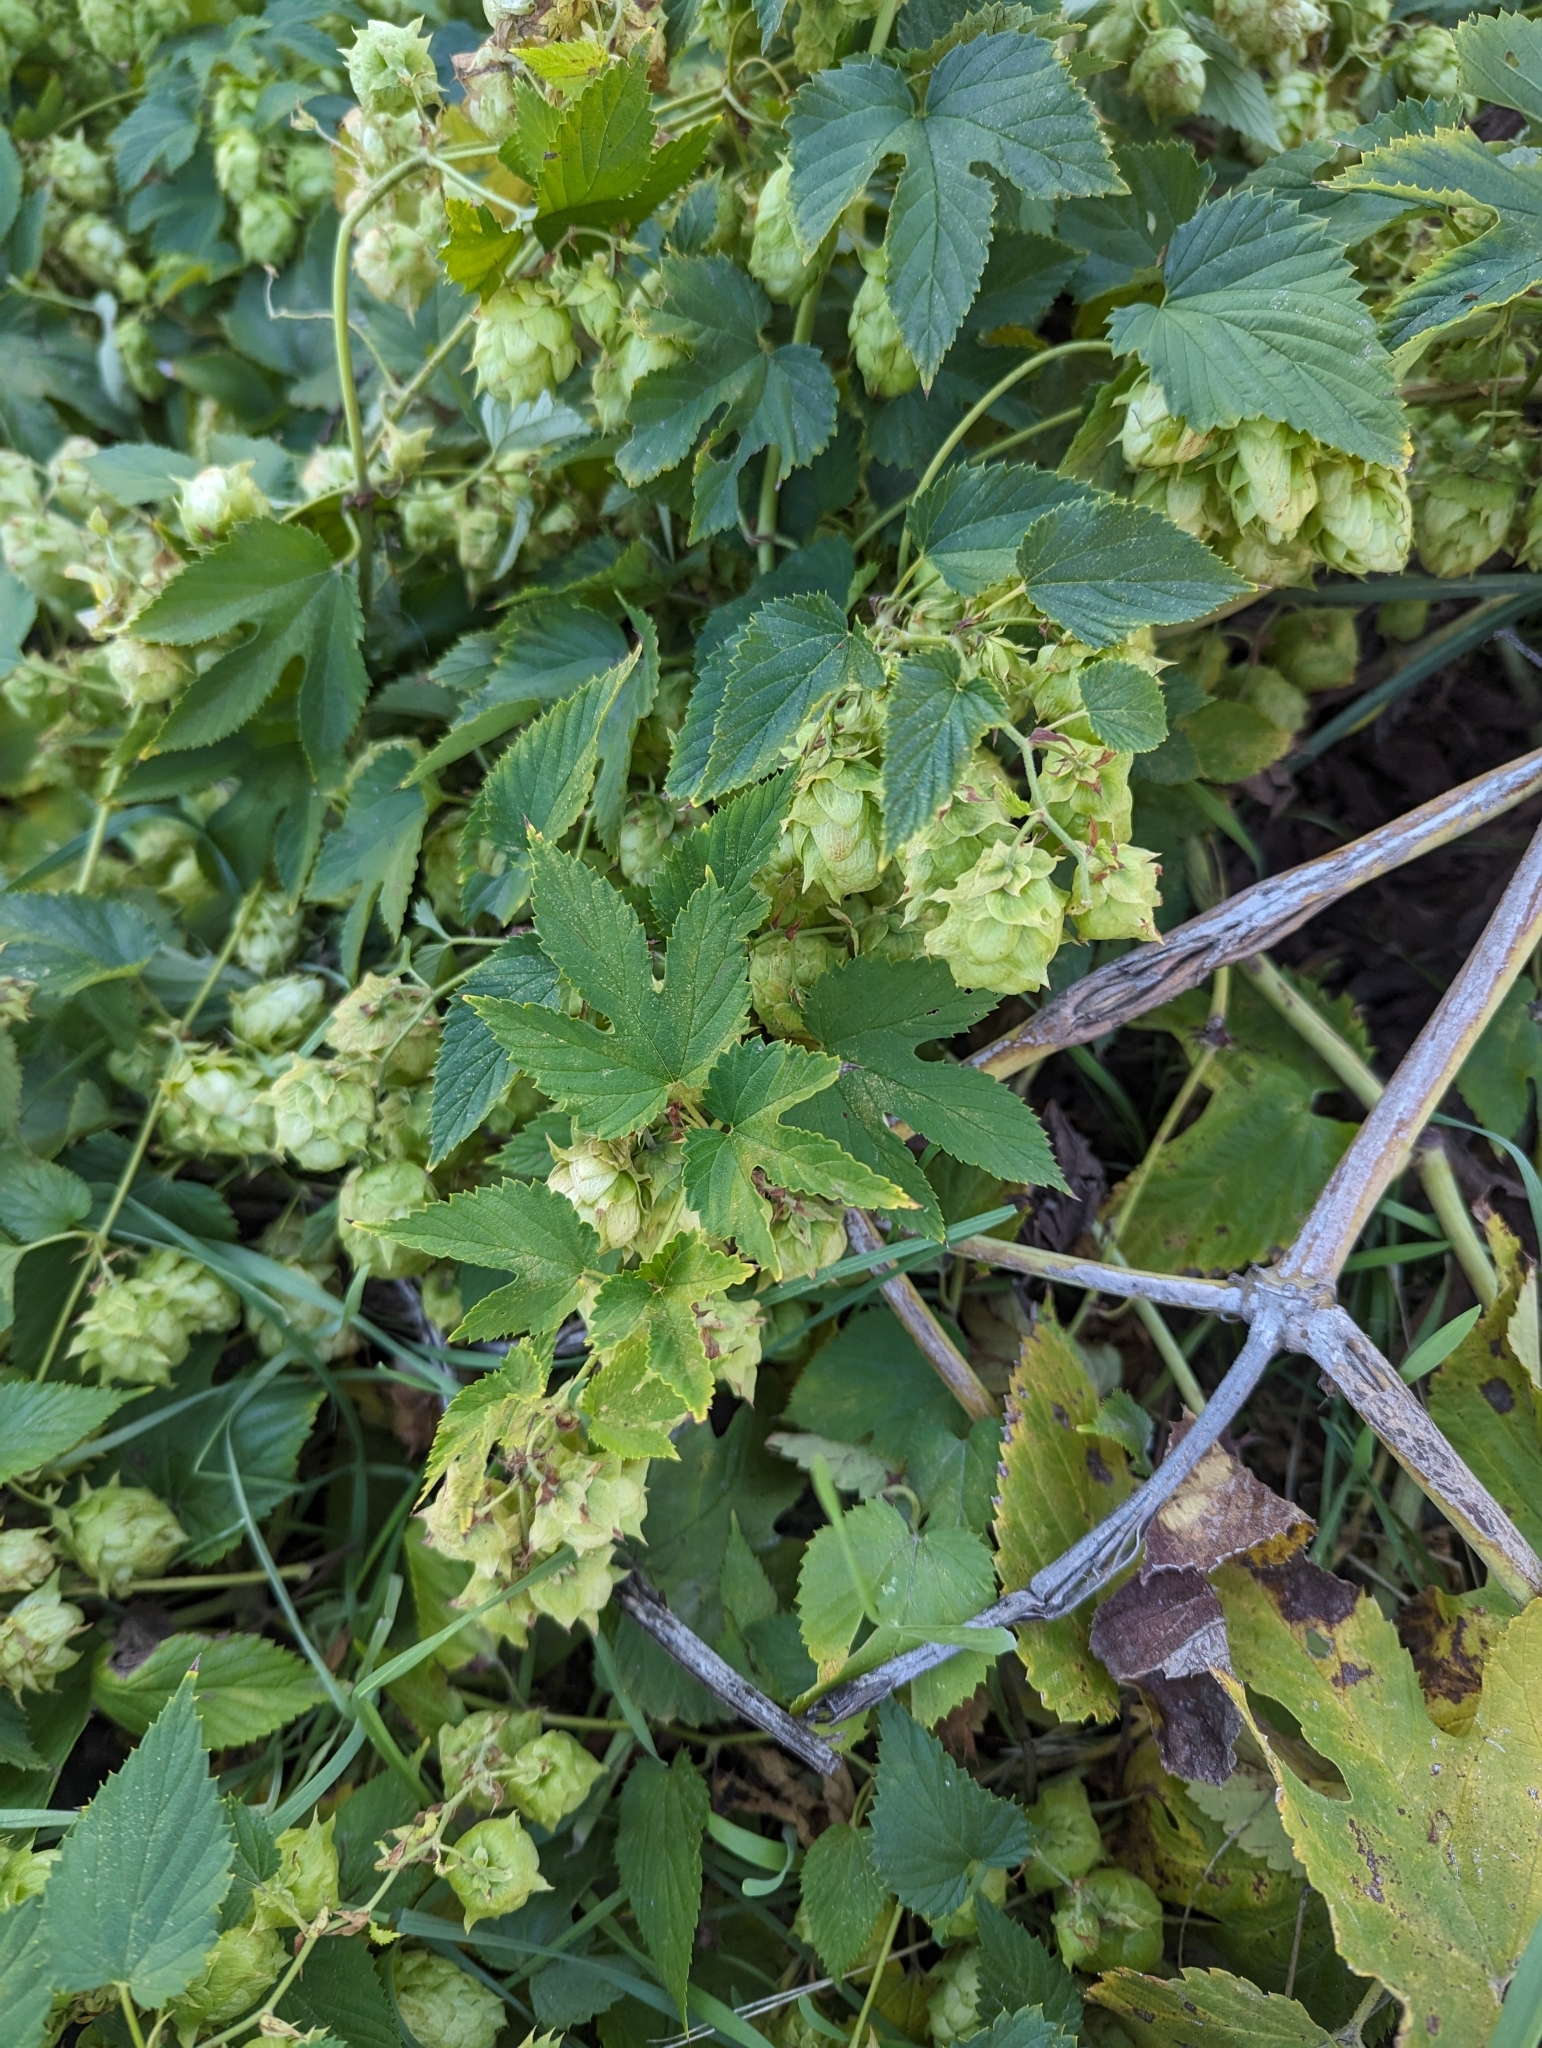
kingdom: Plantae
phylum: Tracheophyta
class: Magnoliopsida
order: Rosales
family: Cannabaceae
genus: Humulus
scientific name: Humulus lupulus
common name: Hop
